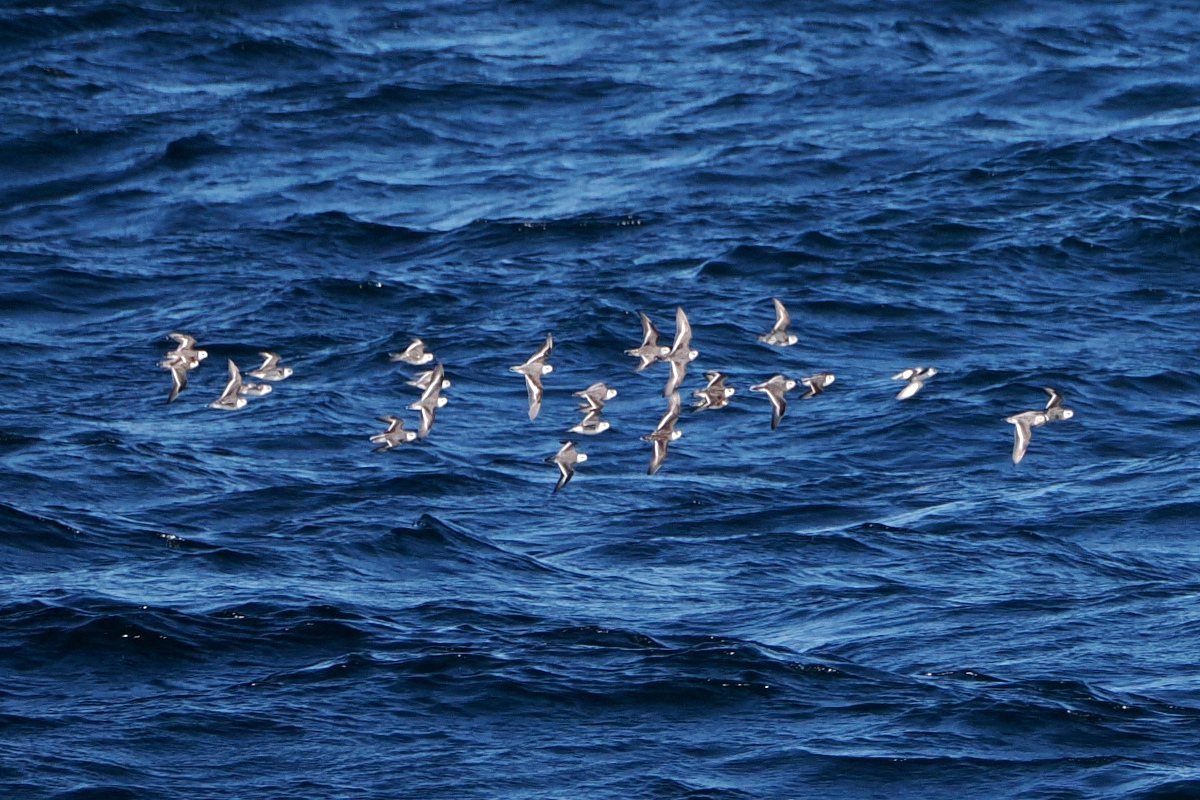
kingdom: Animalia
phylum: Chordata
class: Aves
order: Charadriiformes
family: Scolopacidae
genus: Phalaropus
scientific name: Phalaropus fulicarius
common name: Red phalarope
